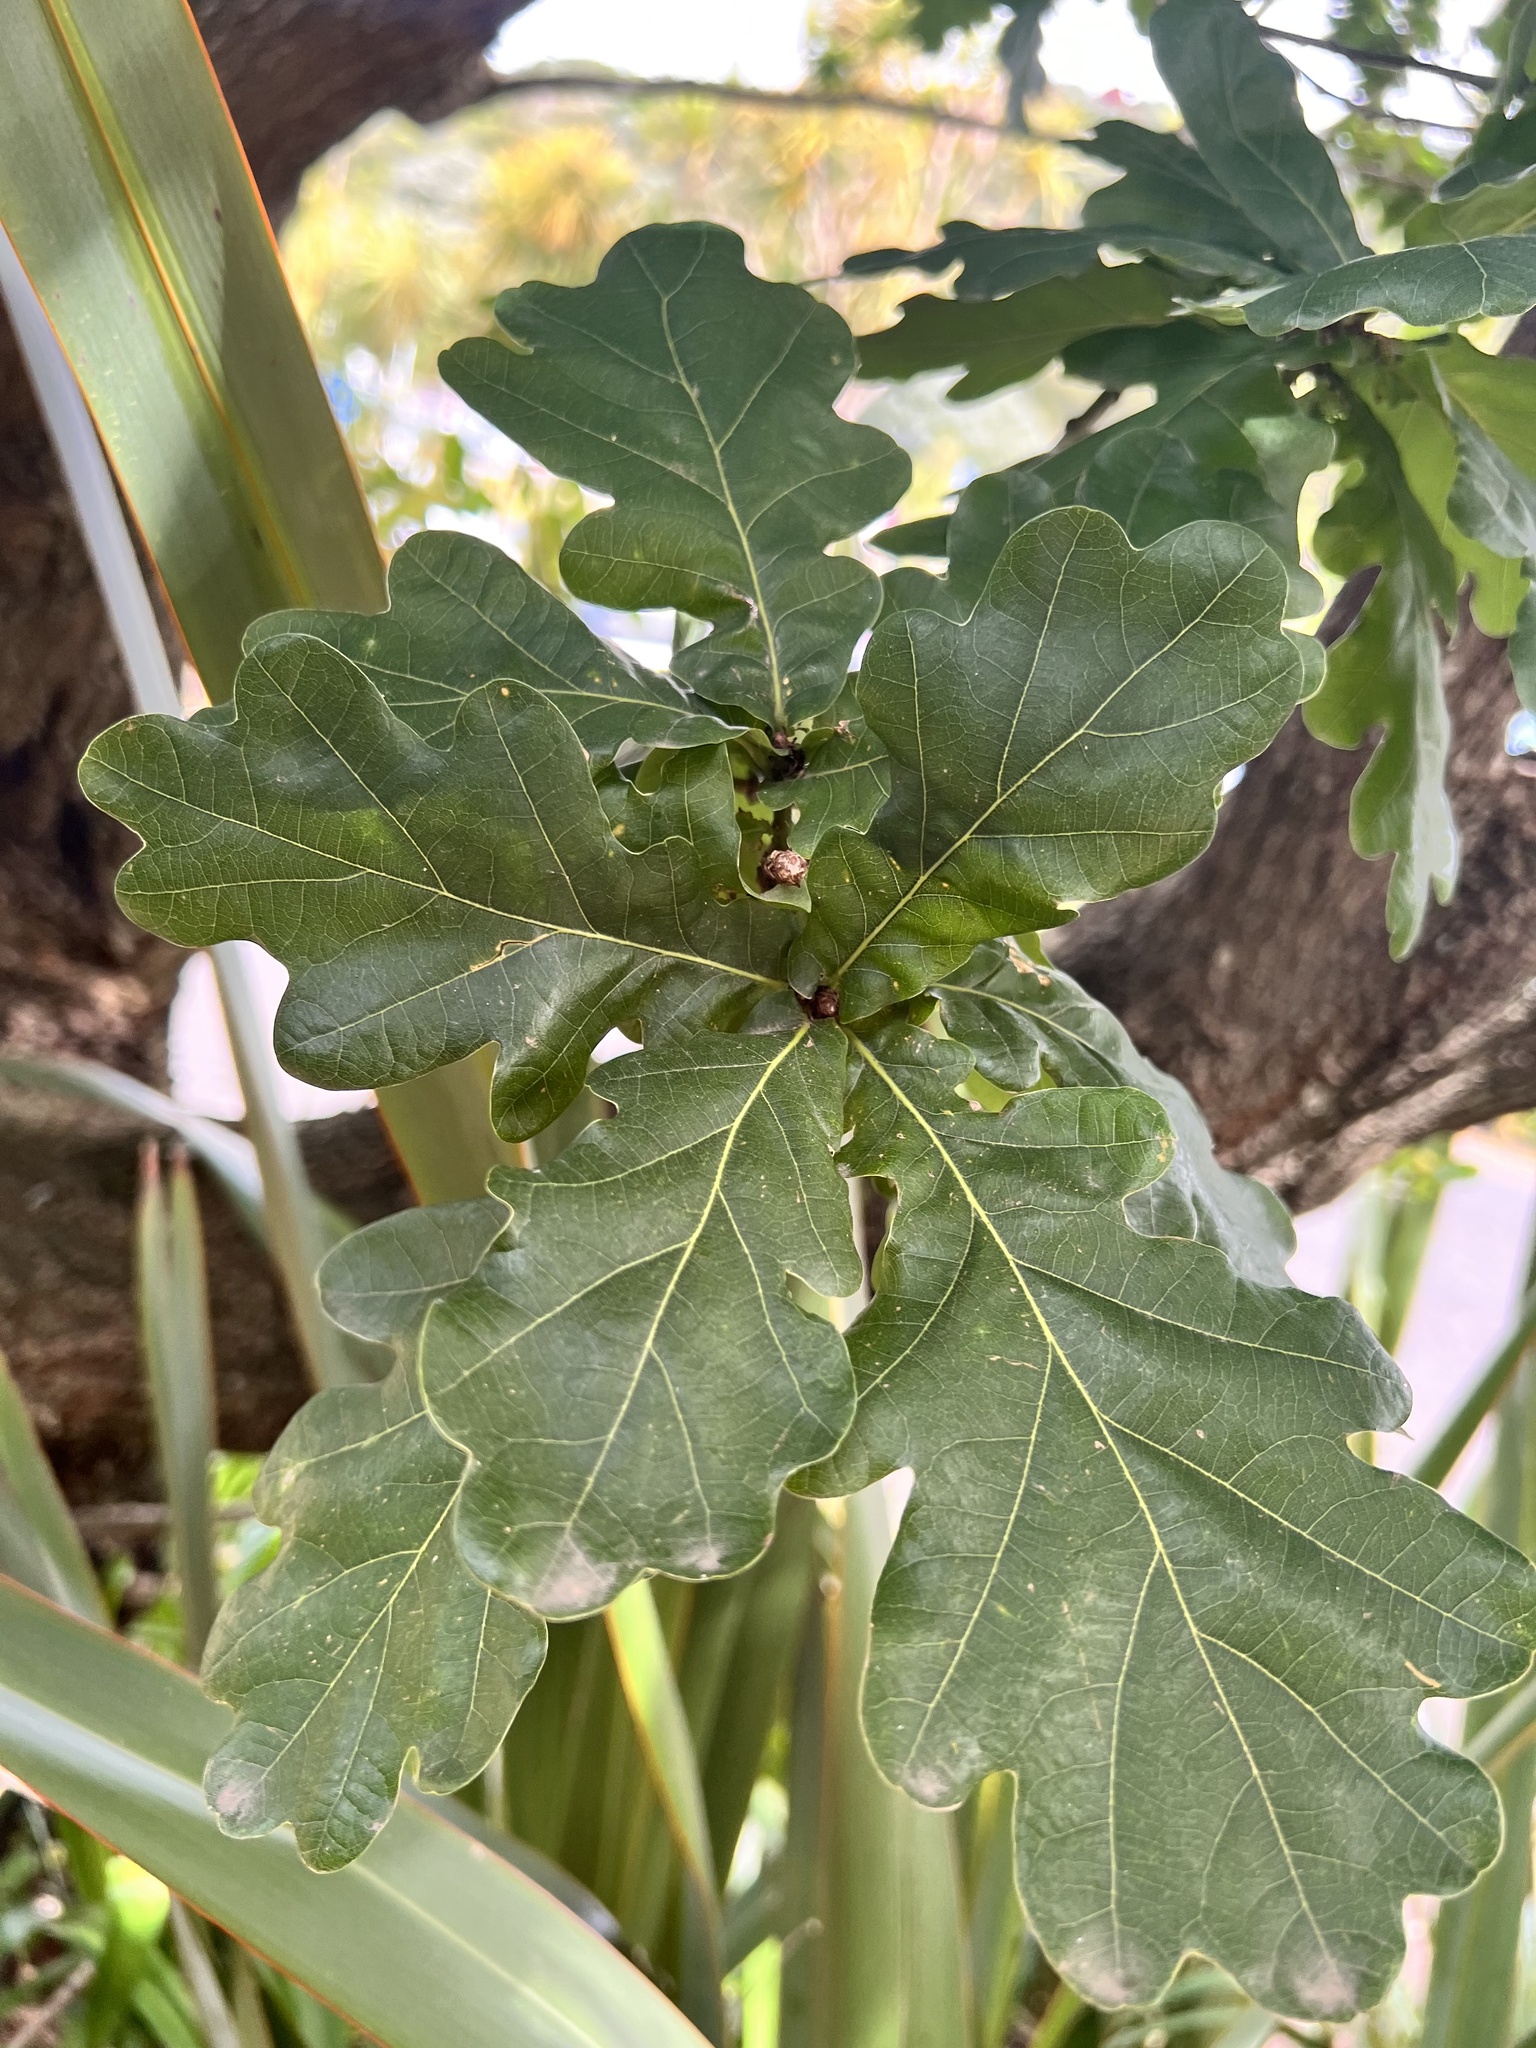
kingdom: Plantae
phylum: Tracheophyta
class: Magnoliopsida
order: Fagales
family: Fagaceae
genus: Quercus
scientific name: Quercus robur
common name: Pedunculate oak
